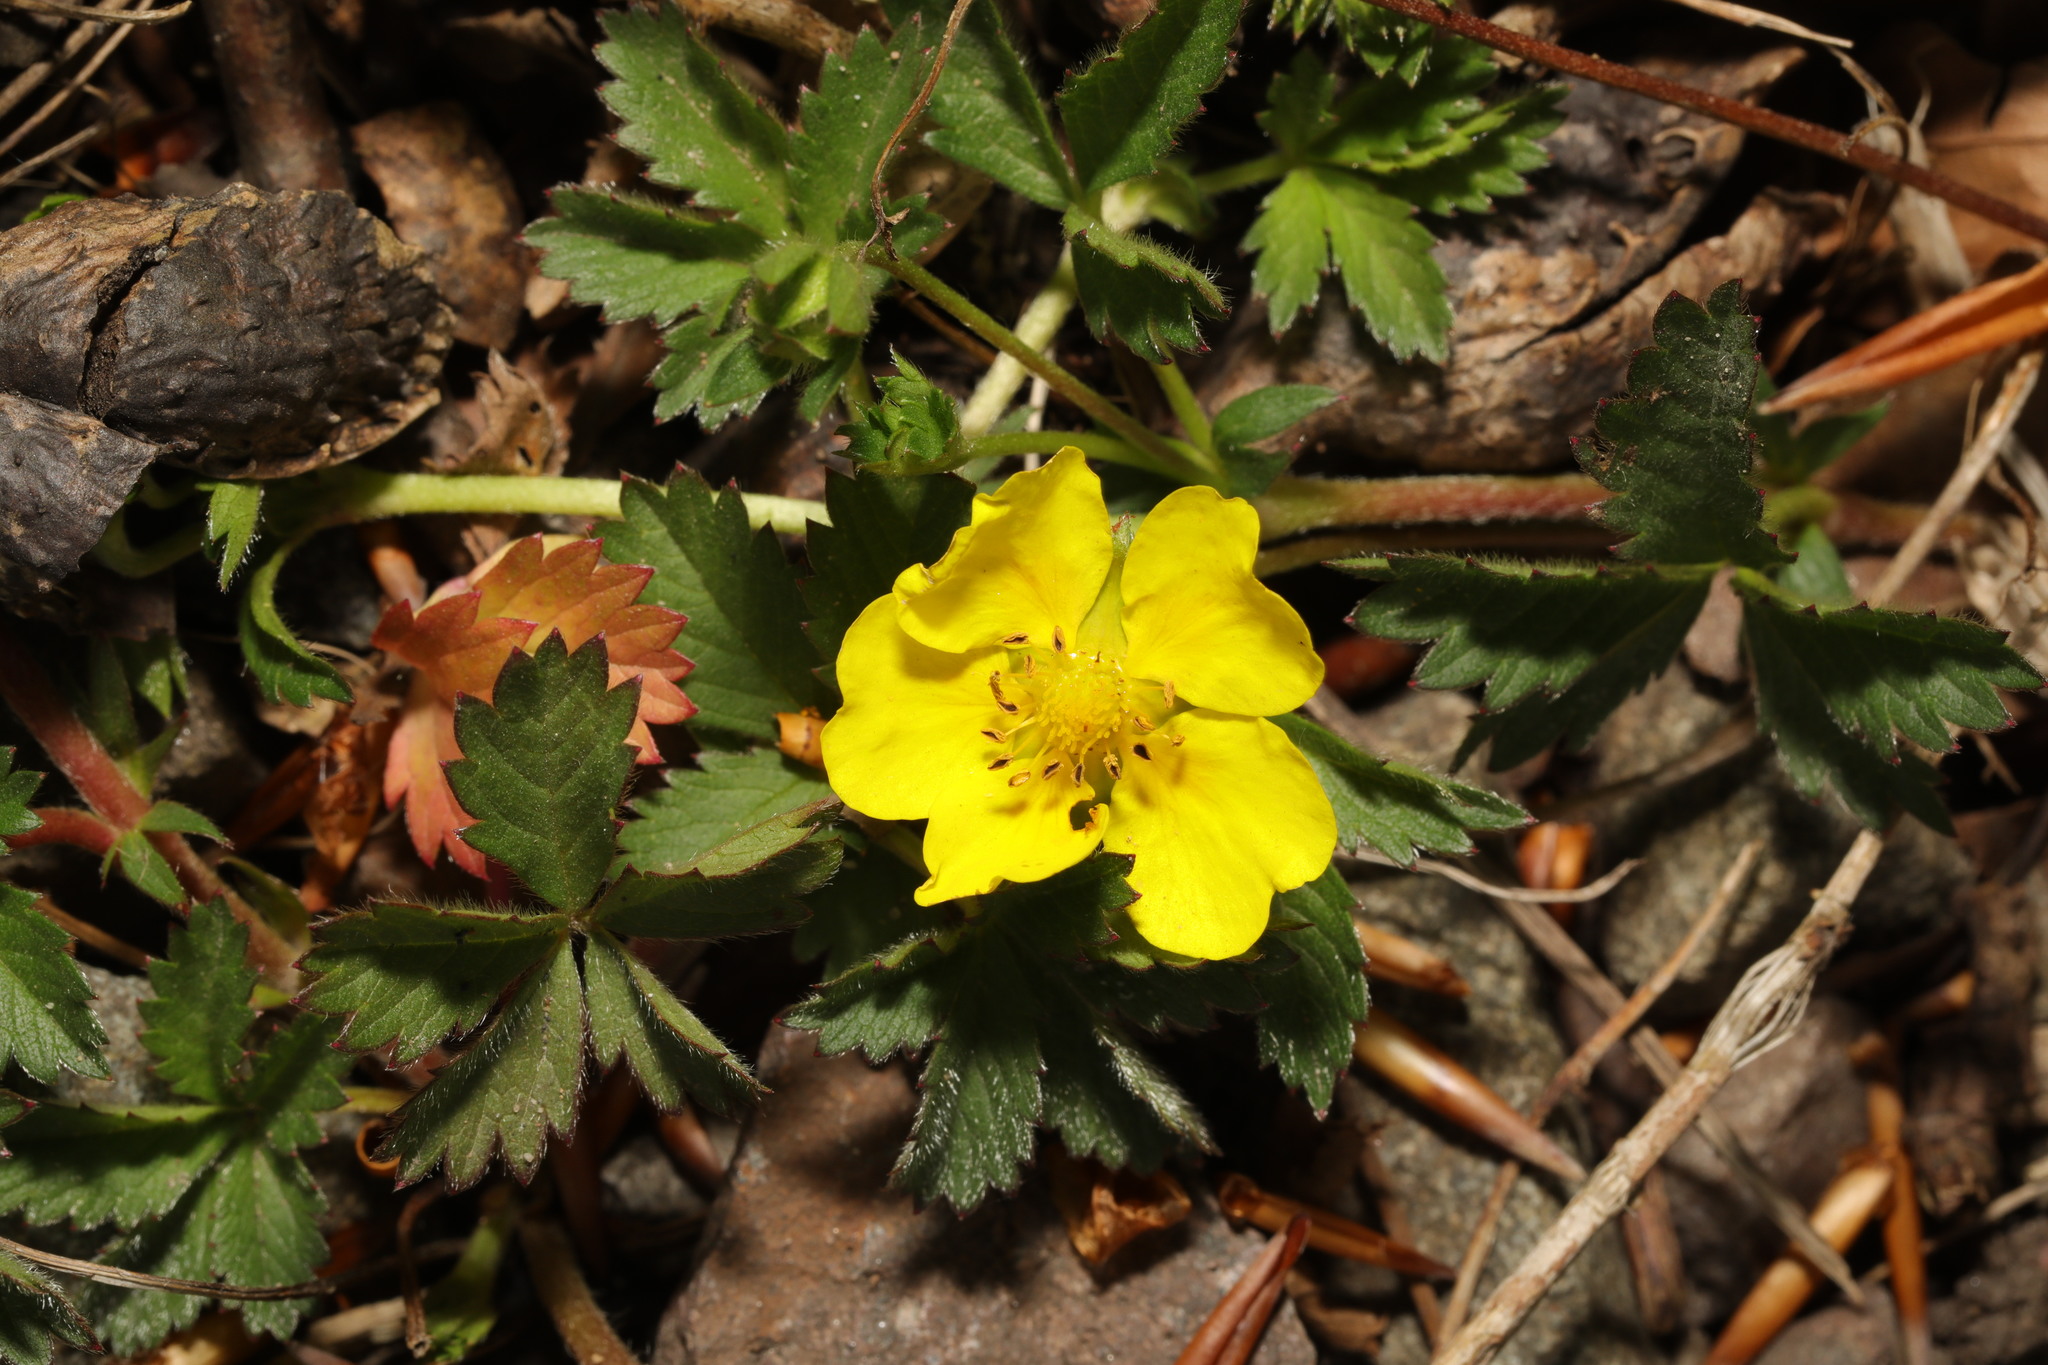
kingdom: Plantae
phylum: Tracheophyta
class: Magnoliopsida
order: Rosales
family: Rosaceae
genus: Potentilla
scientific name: Potentilla reptans
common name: Creeping cinquefoil
